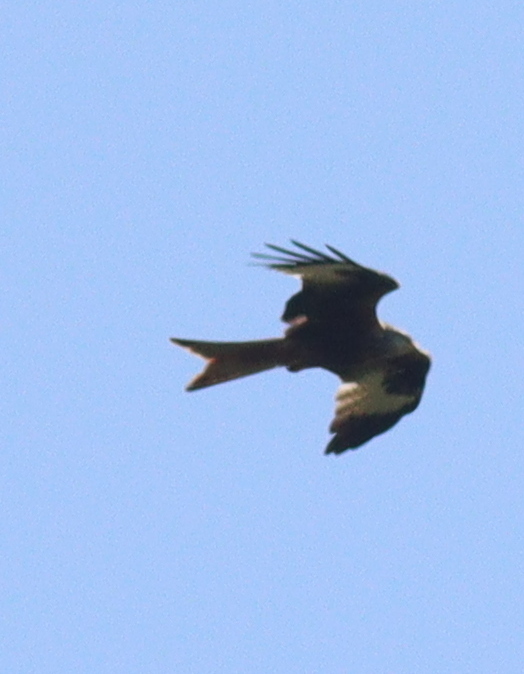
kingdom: Animalia
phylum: Chordata
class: Aves
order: Accipitriformes
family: Accipitridae
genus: Milvus
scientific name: Milvus milvus
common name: Red kite
